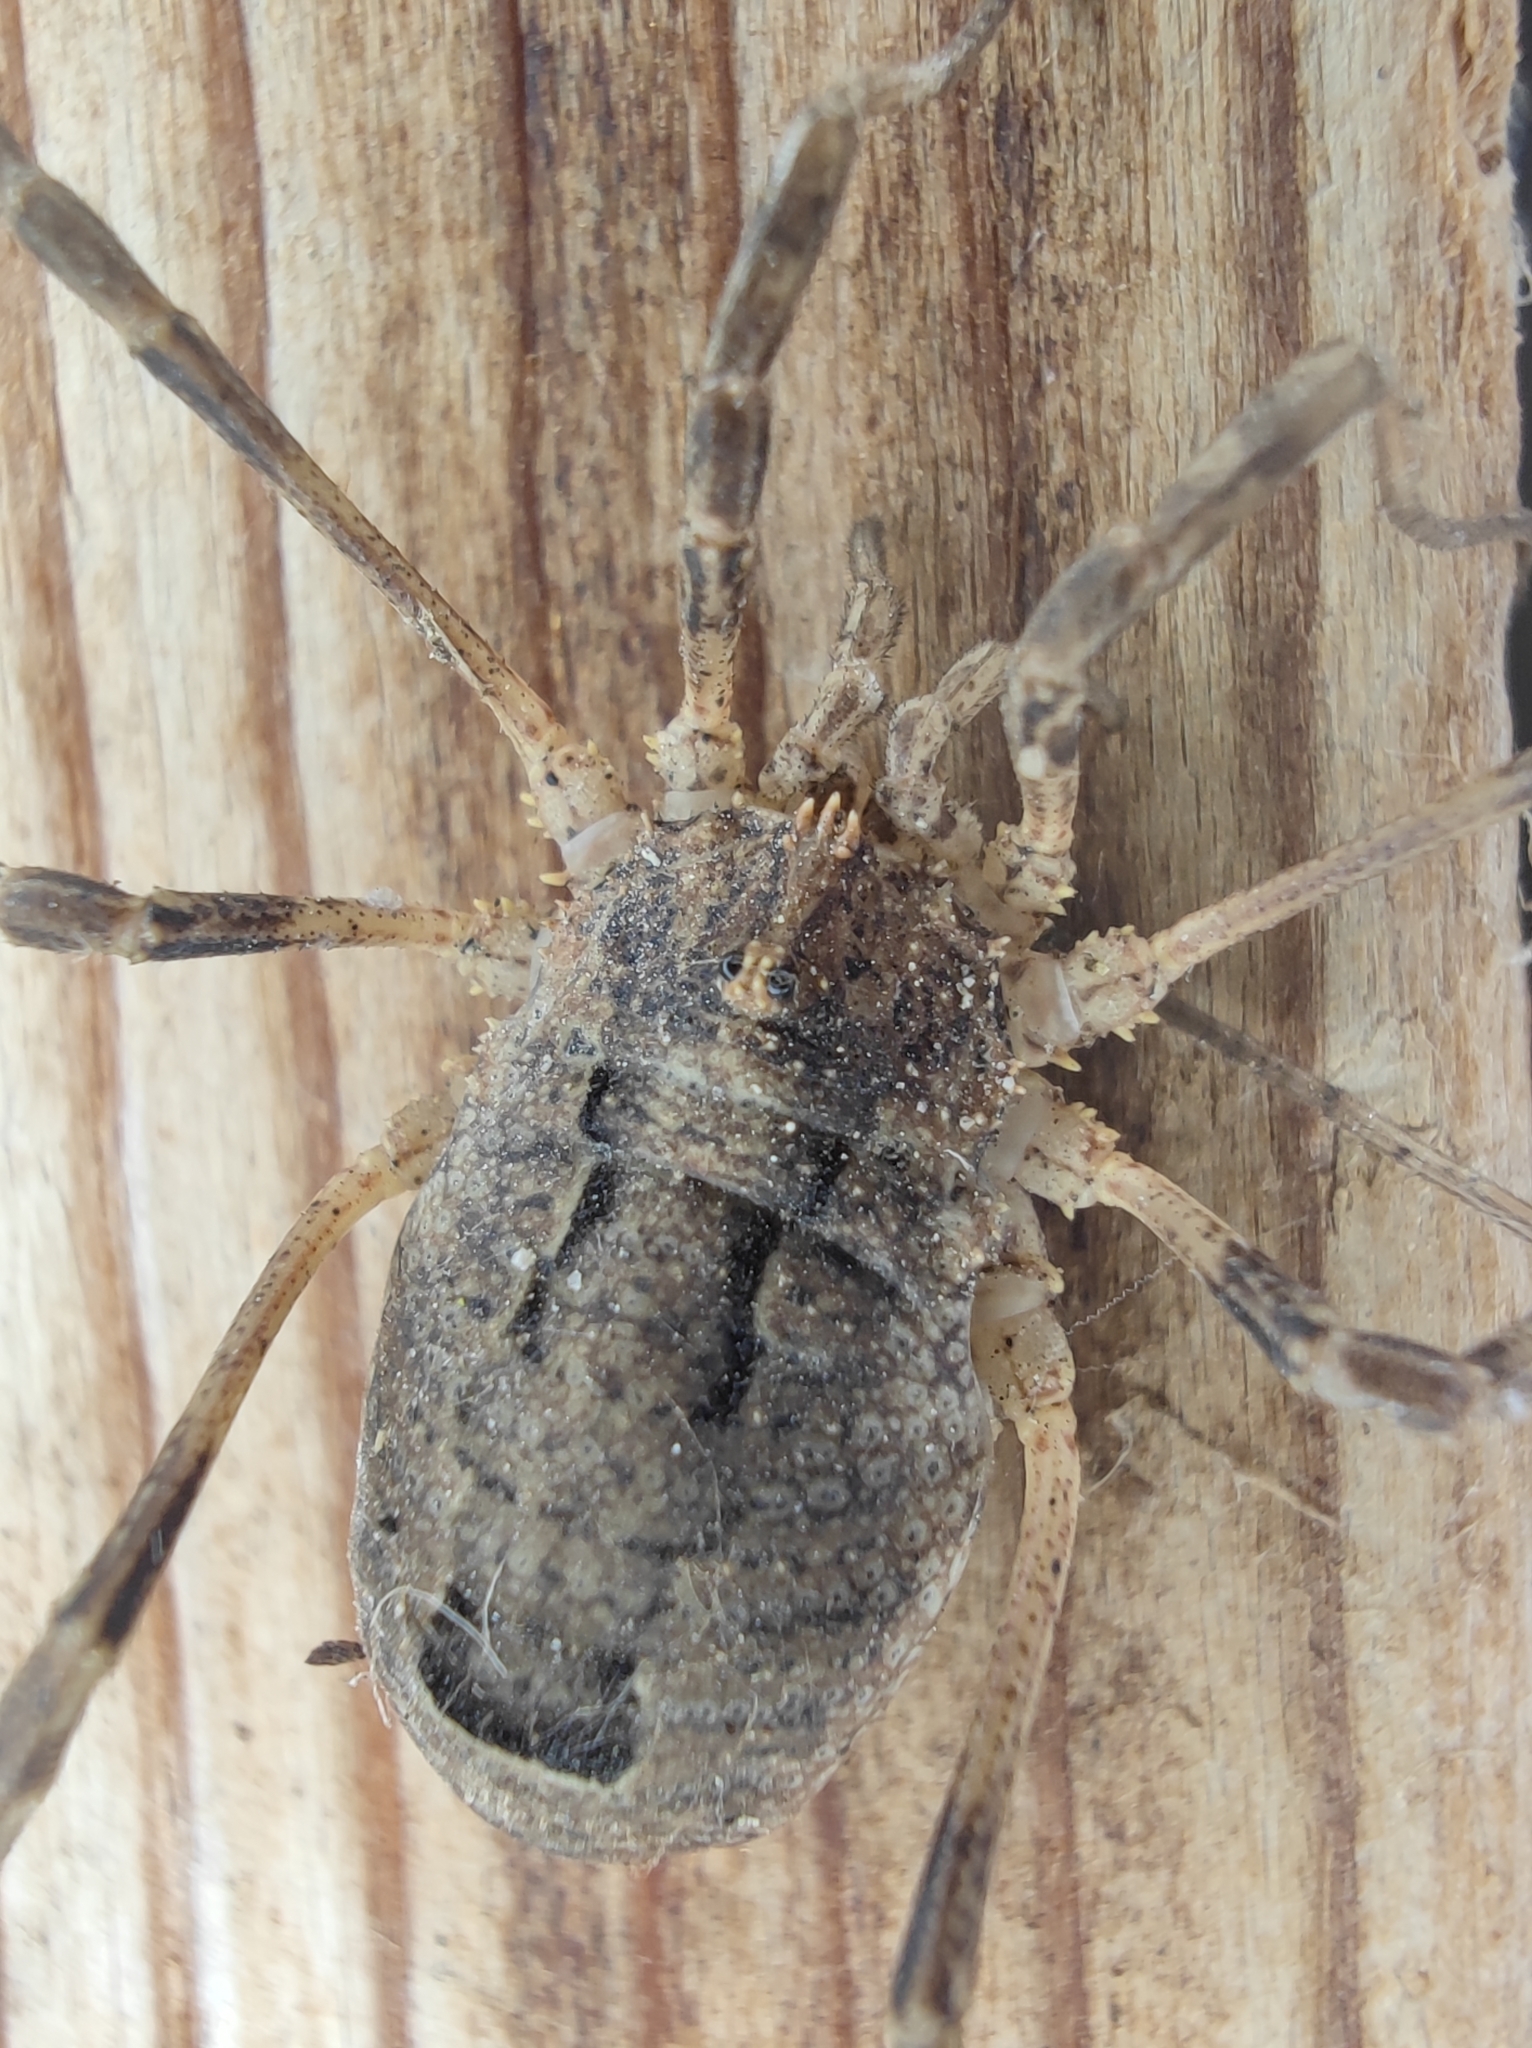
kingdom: Animalia
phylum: Arthropoda
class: Arachnida
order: Opiliones
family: Phalangiidae
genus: Odiellus
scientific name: Odiellus spinosus
